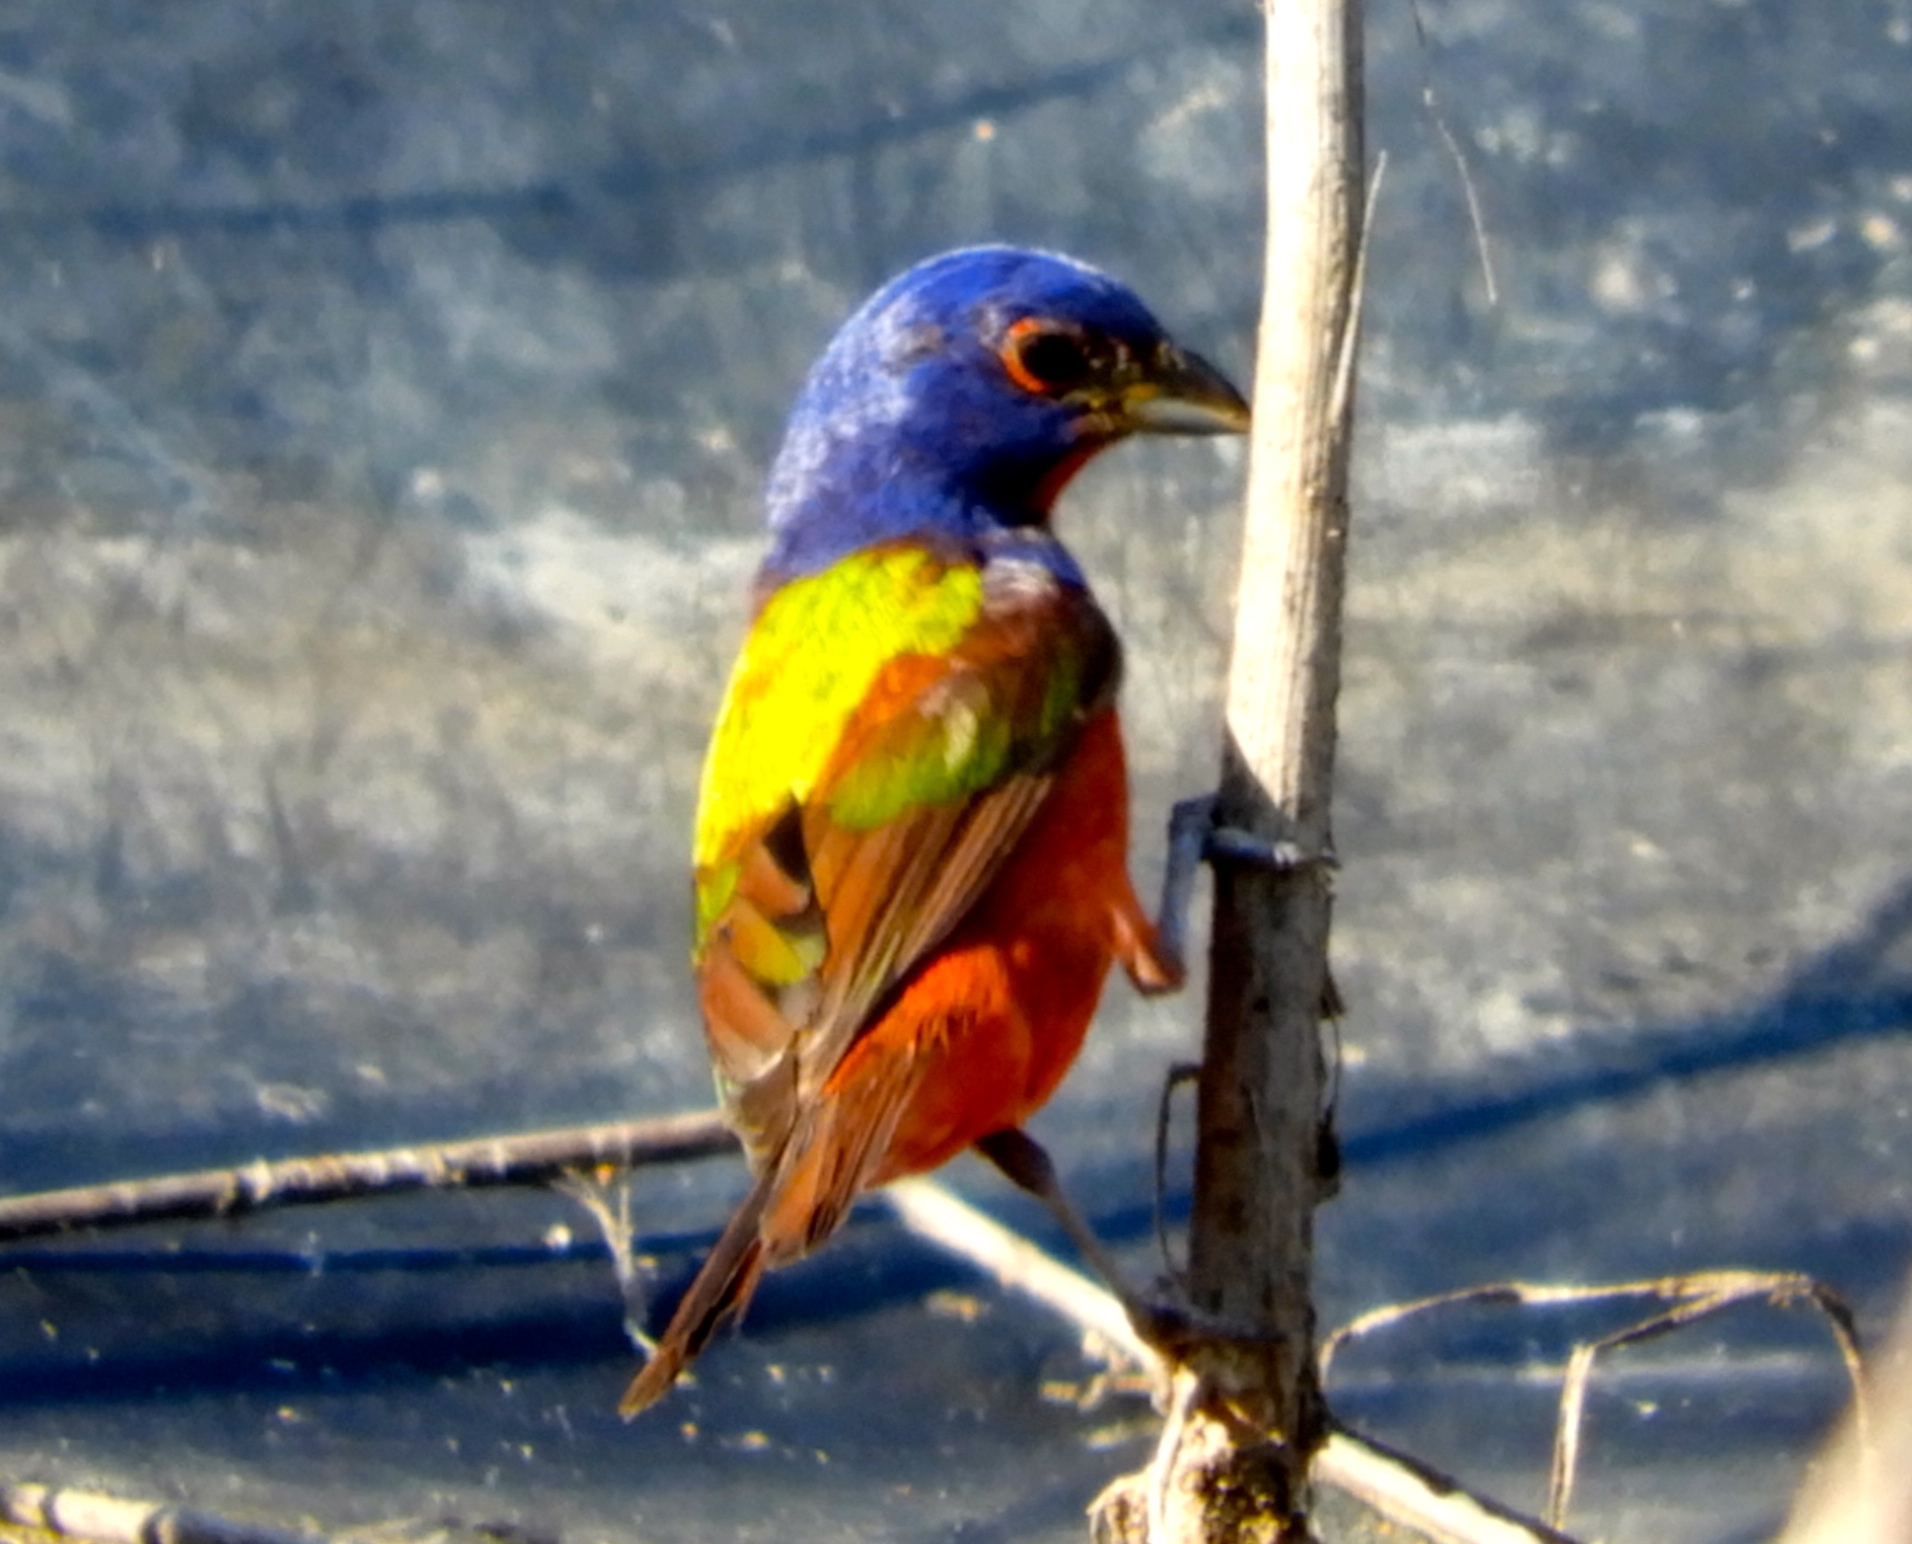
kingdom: Animalia
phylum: Chordata
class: Aves
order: Passeriformes
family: Cardinalidae
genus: Passerina
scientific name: Passerina ciris
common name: Painted bunting
